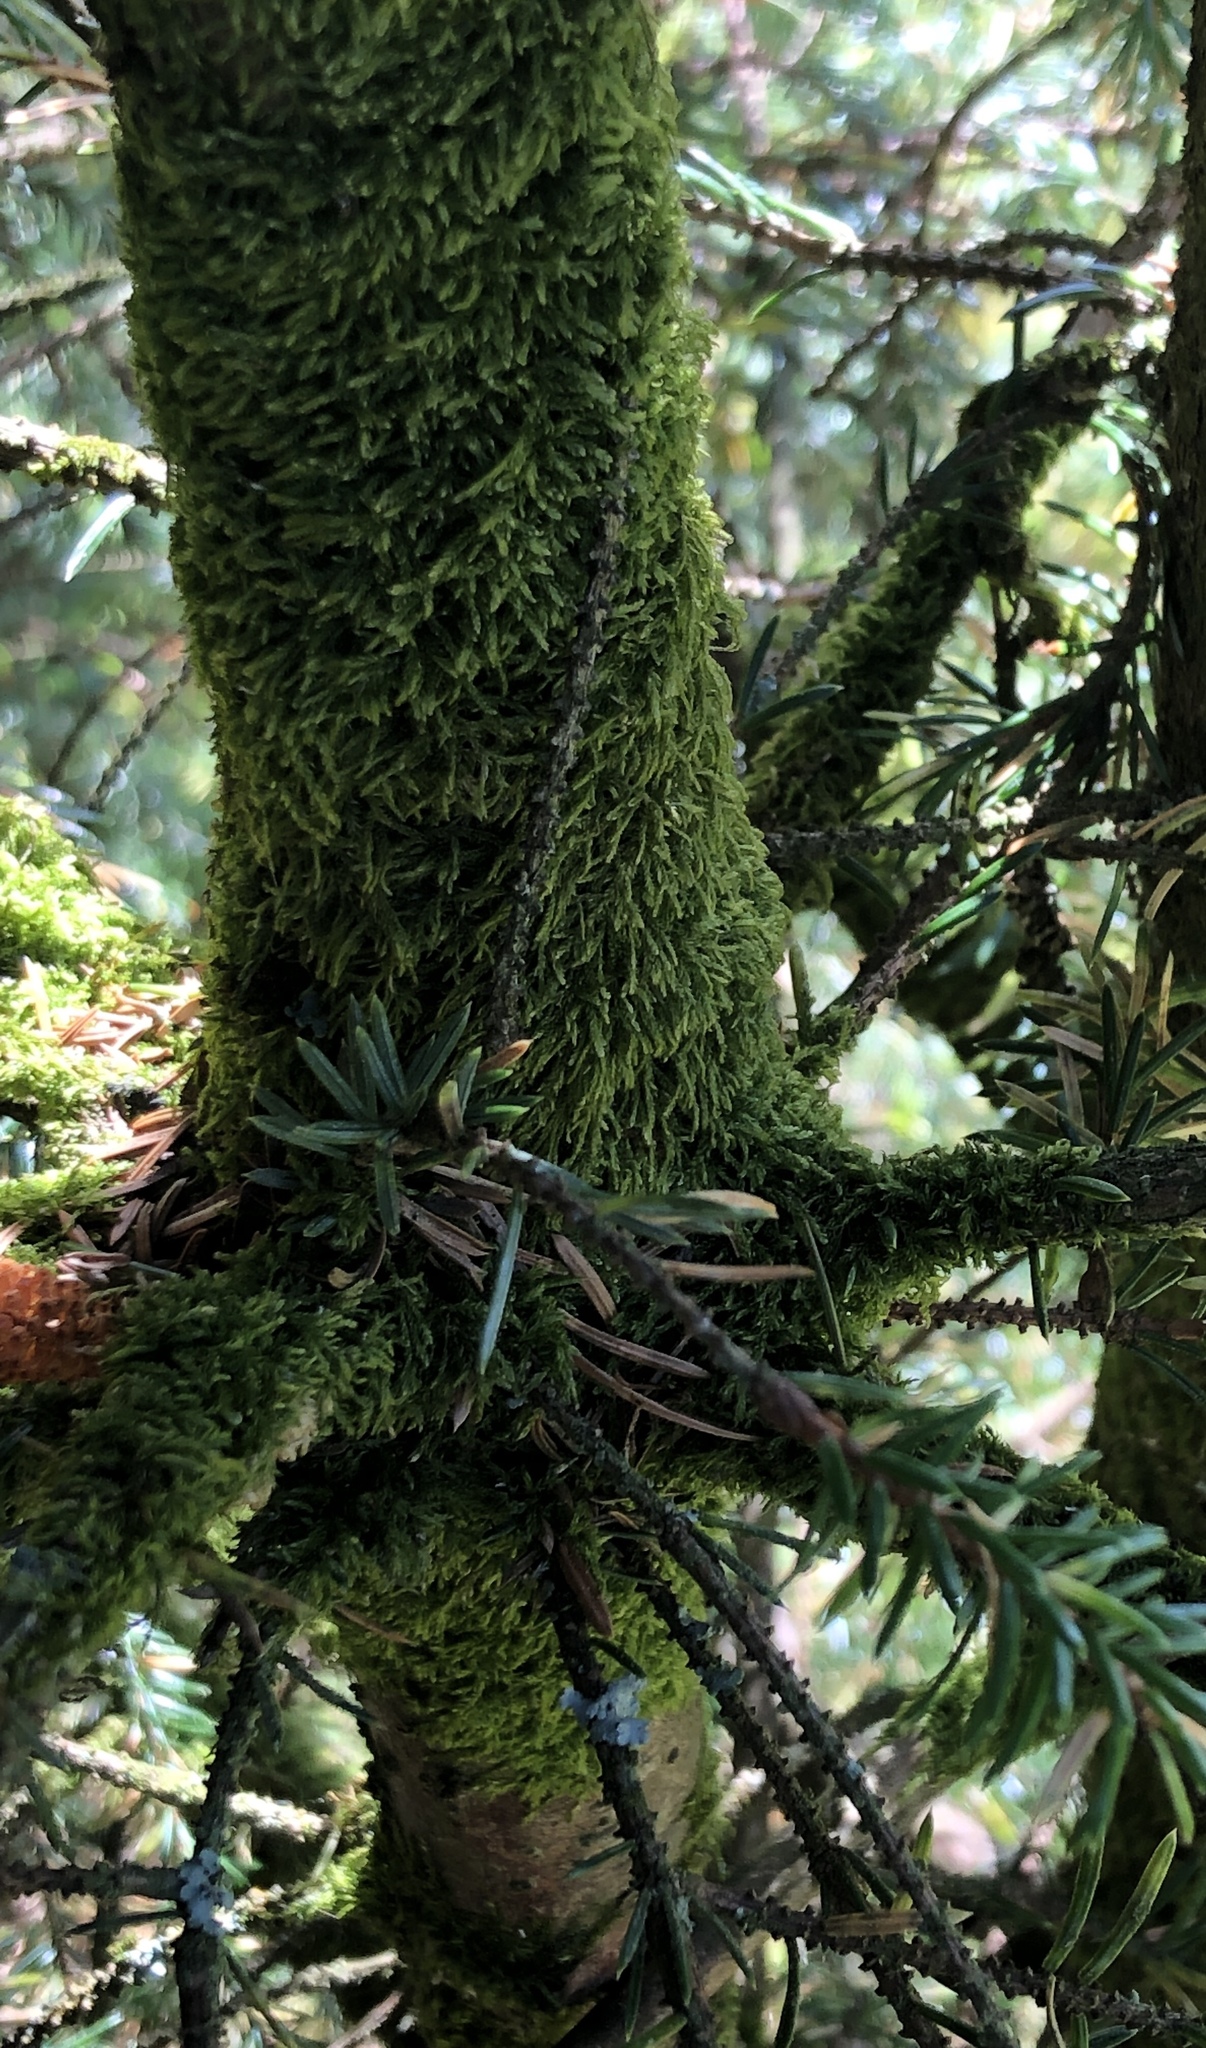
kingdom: Plantae
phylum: Bryophyta
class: Bryopsida
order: Hypnales
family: Hypnaceae
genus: Hypnum
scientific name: Hypnum cupressiforme
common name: Cypress-leaved plait-moss
